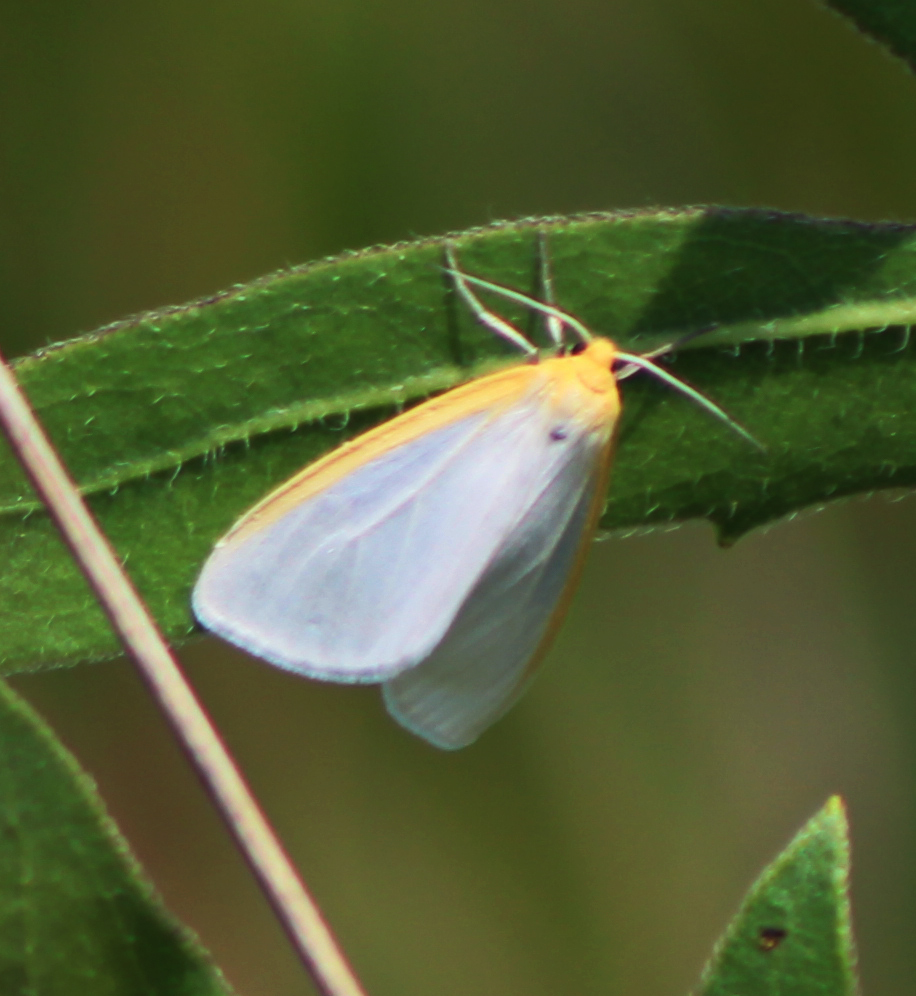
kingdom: Animalia
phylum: Arthropoda
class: Insecta
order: Lepidoptera
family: Erebidae
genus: Cycnia
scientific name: Cycnia tenera
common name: Delicate cycnia moth
